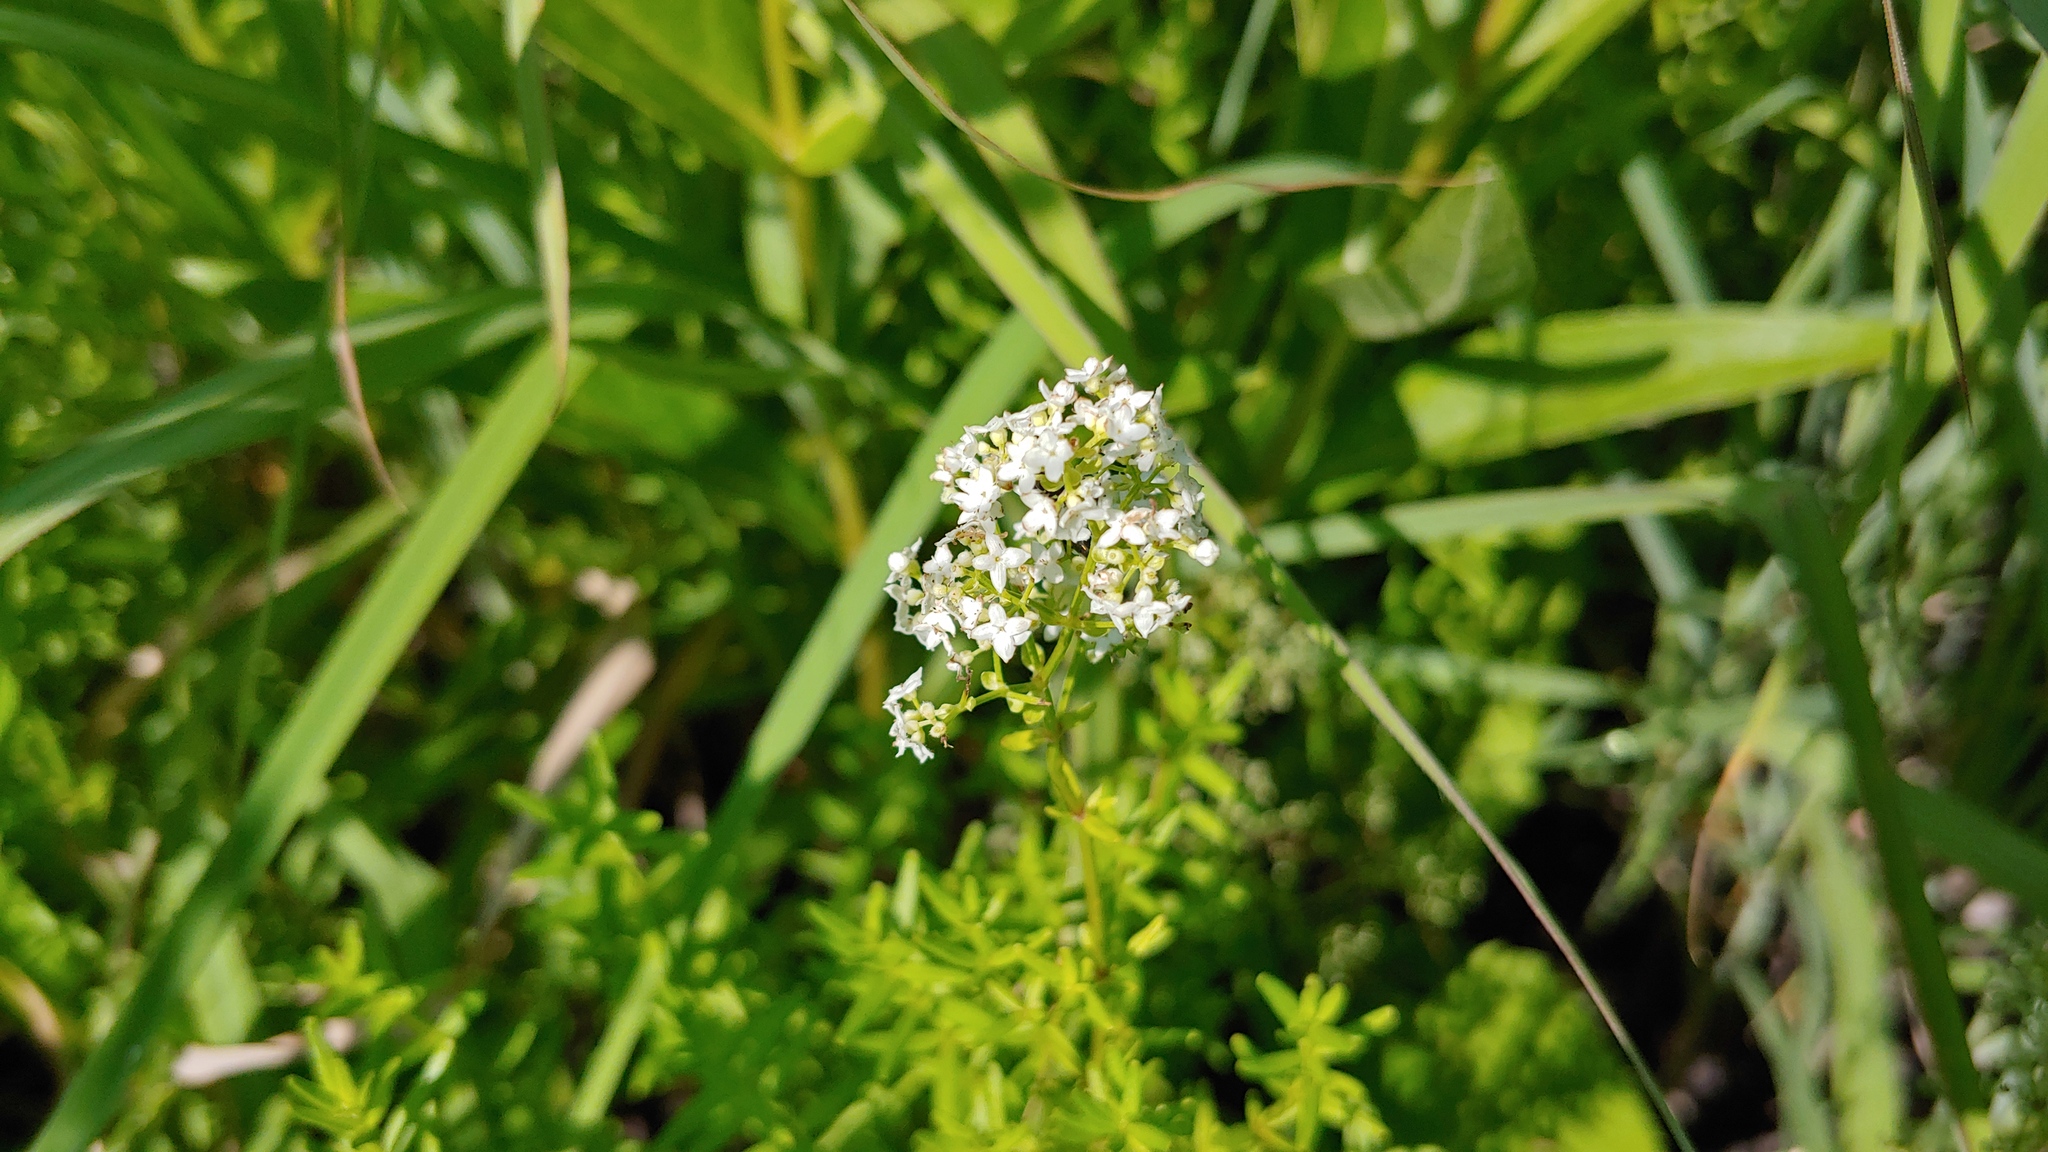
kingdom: Plantae
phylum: Tracheophyta
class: Magnoliopsida
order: Gentianales
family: Rubiaceae
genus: Galium
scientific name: Galium boreale
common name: Northern bedstraw
